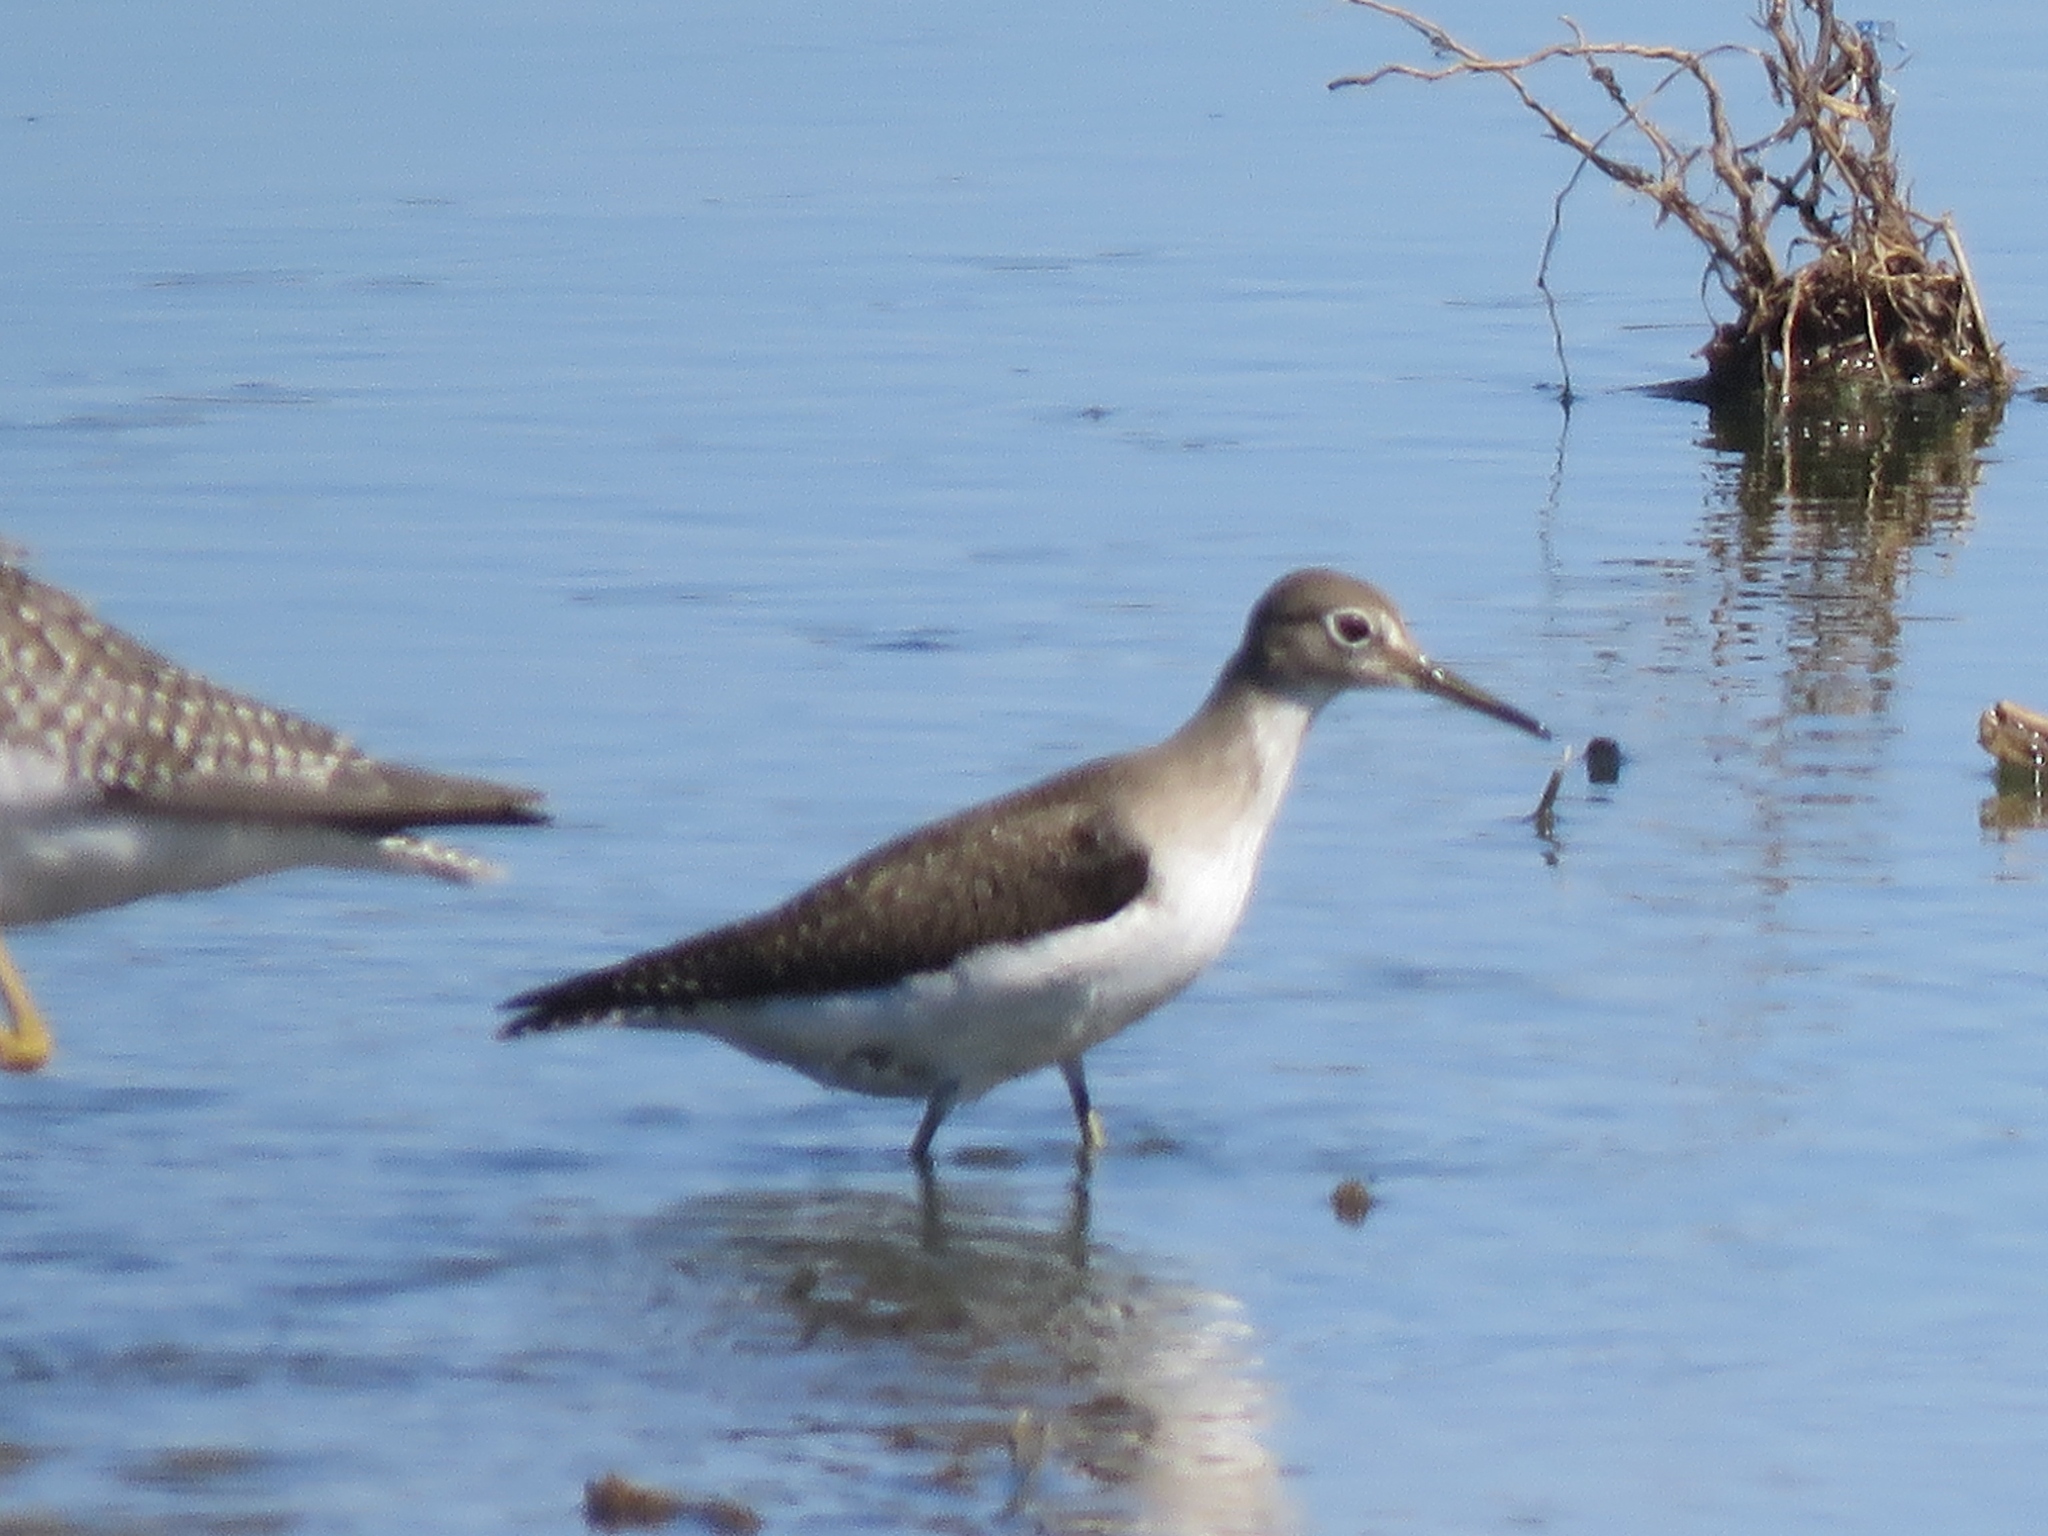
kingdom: Animalia
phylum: Chordata
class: Aves
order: Charadriiformes
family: Scolopacidae
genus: Tringa
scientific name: Tringa solitaria
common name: Solitary sandpiper
